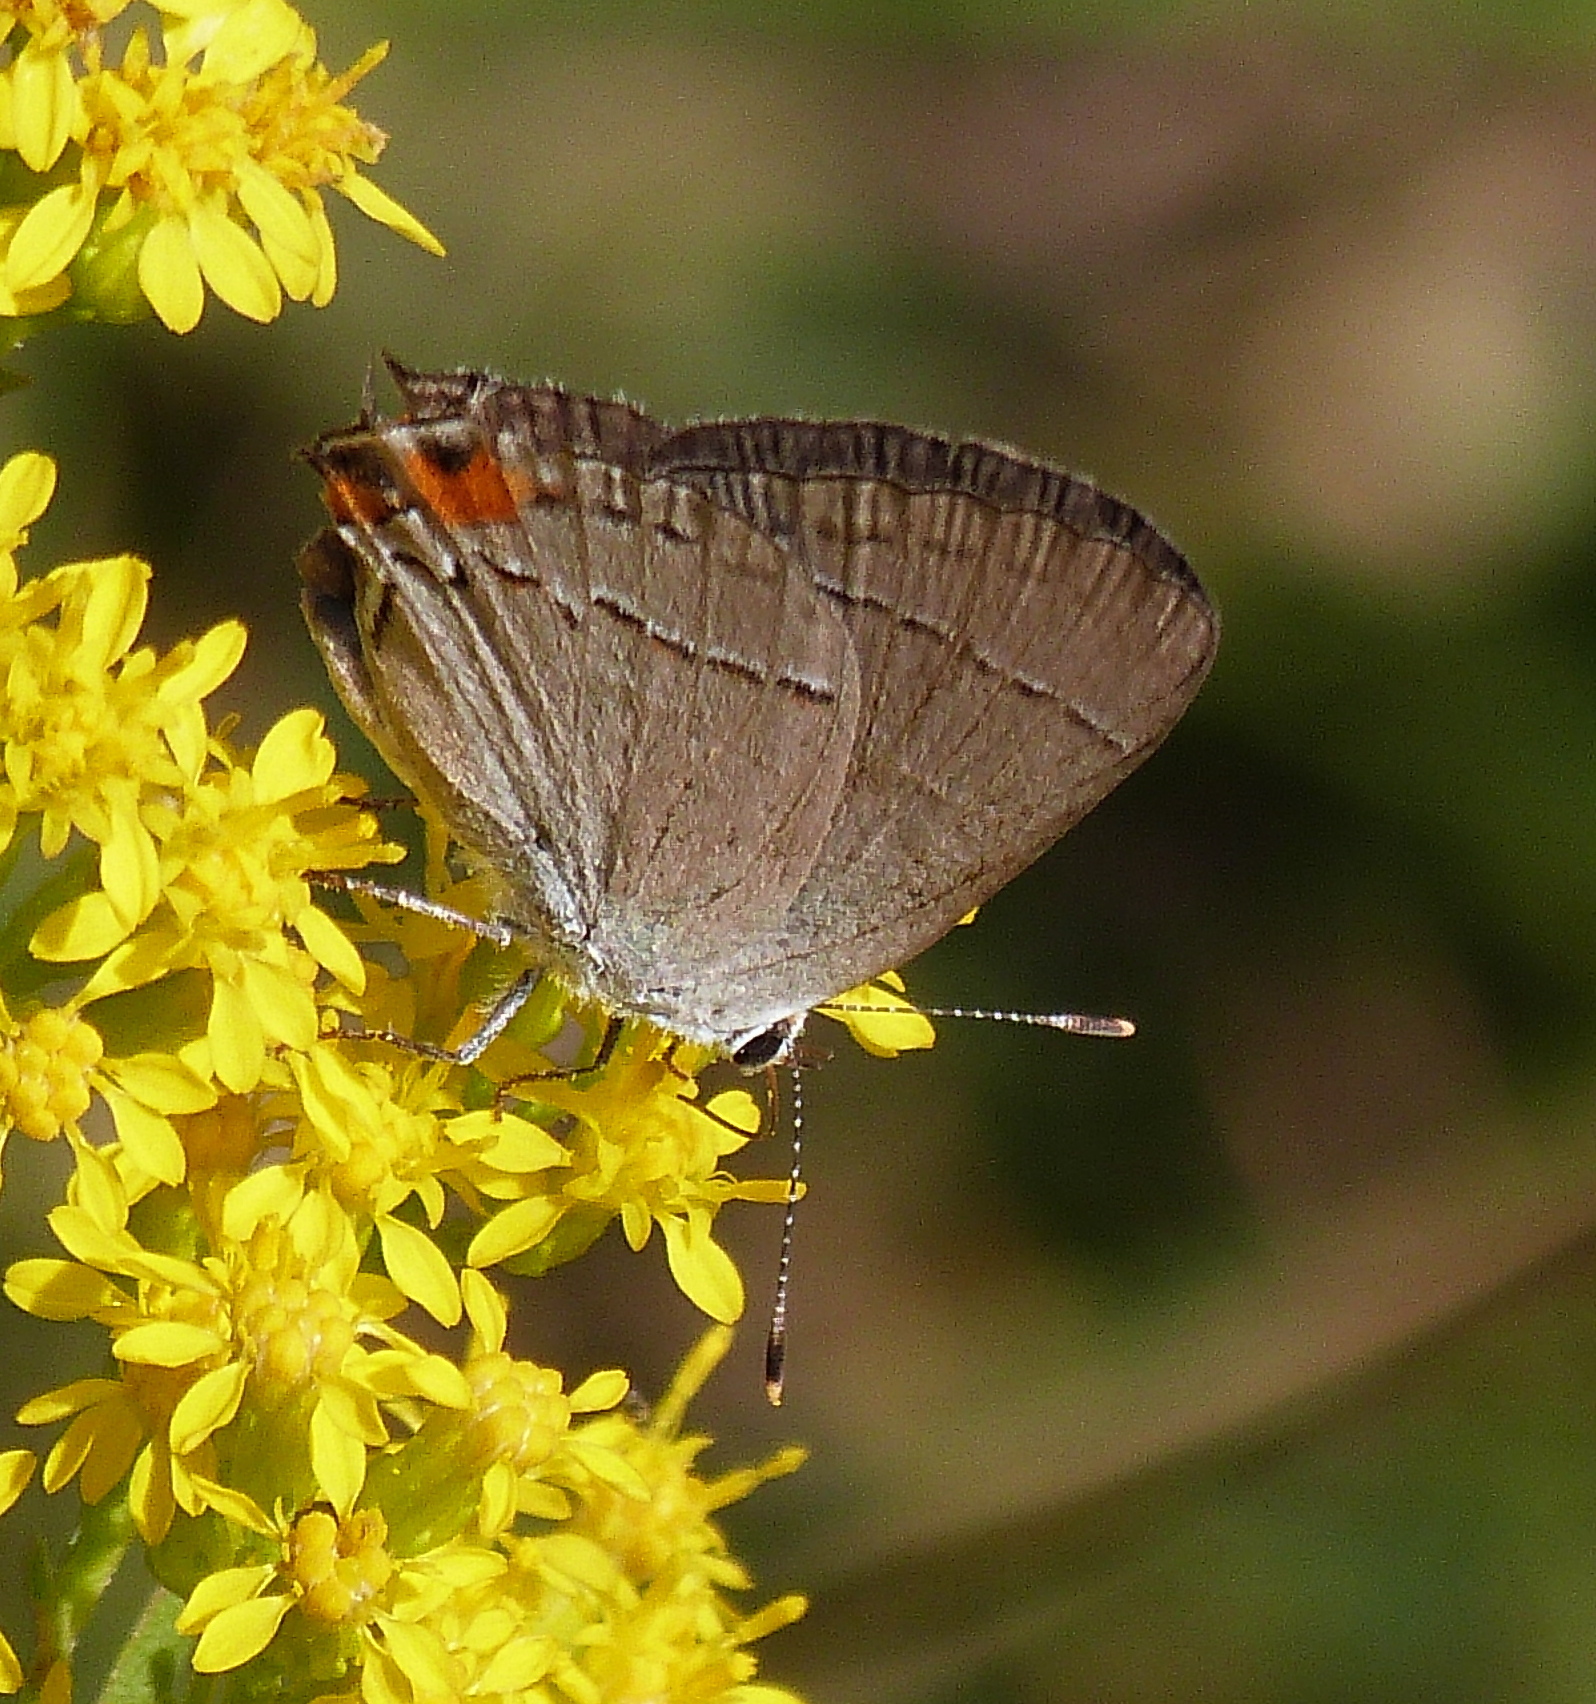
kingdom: Animalia
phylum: Arthropoda
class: Insecta
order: Lepidoptera
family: Lycaenidae
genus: Strymon
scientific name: Strymon melinus
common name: Gray hairstreak
